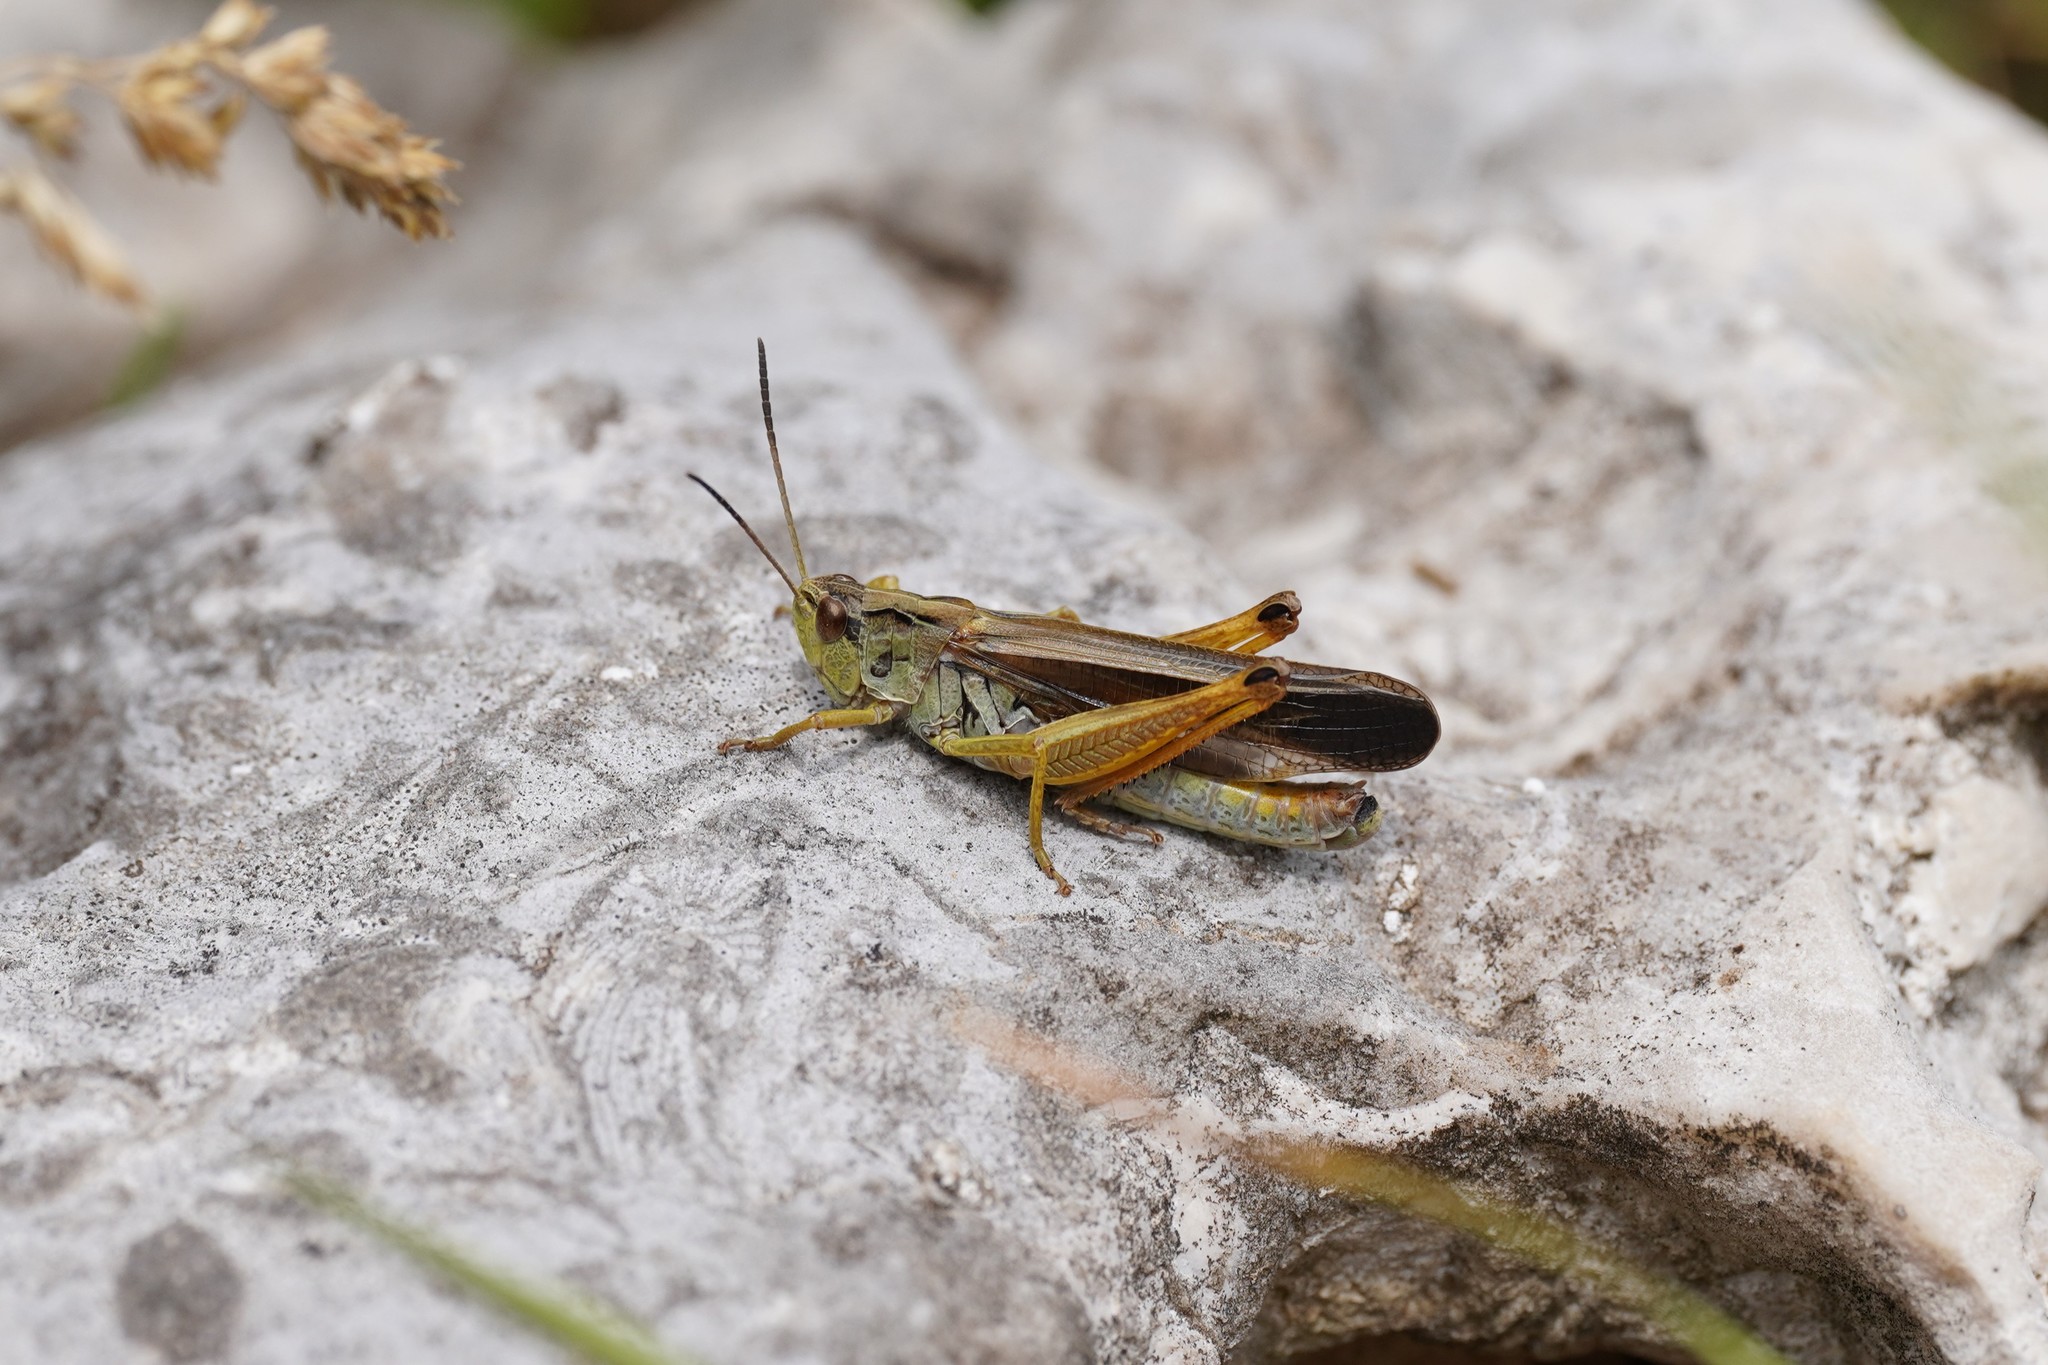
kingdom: Animalia
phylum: Arthropoda
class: Insecta
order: Orthoptera
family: Acrididae
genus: Stauroderus
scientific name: Stauroderus scalaris
